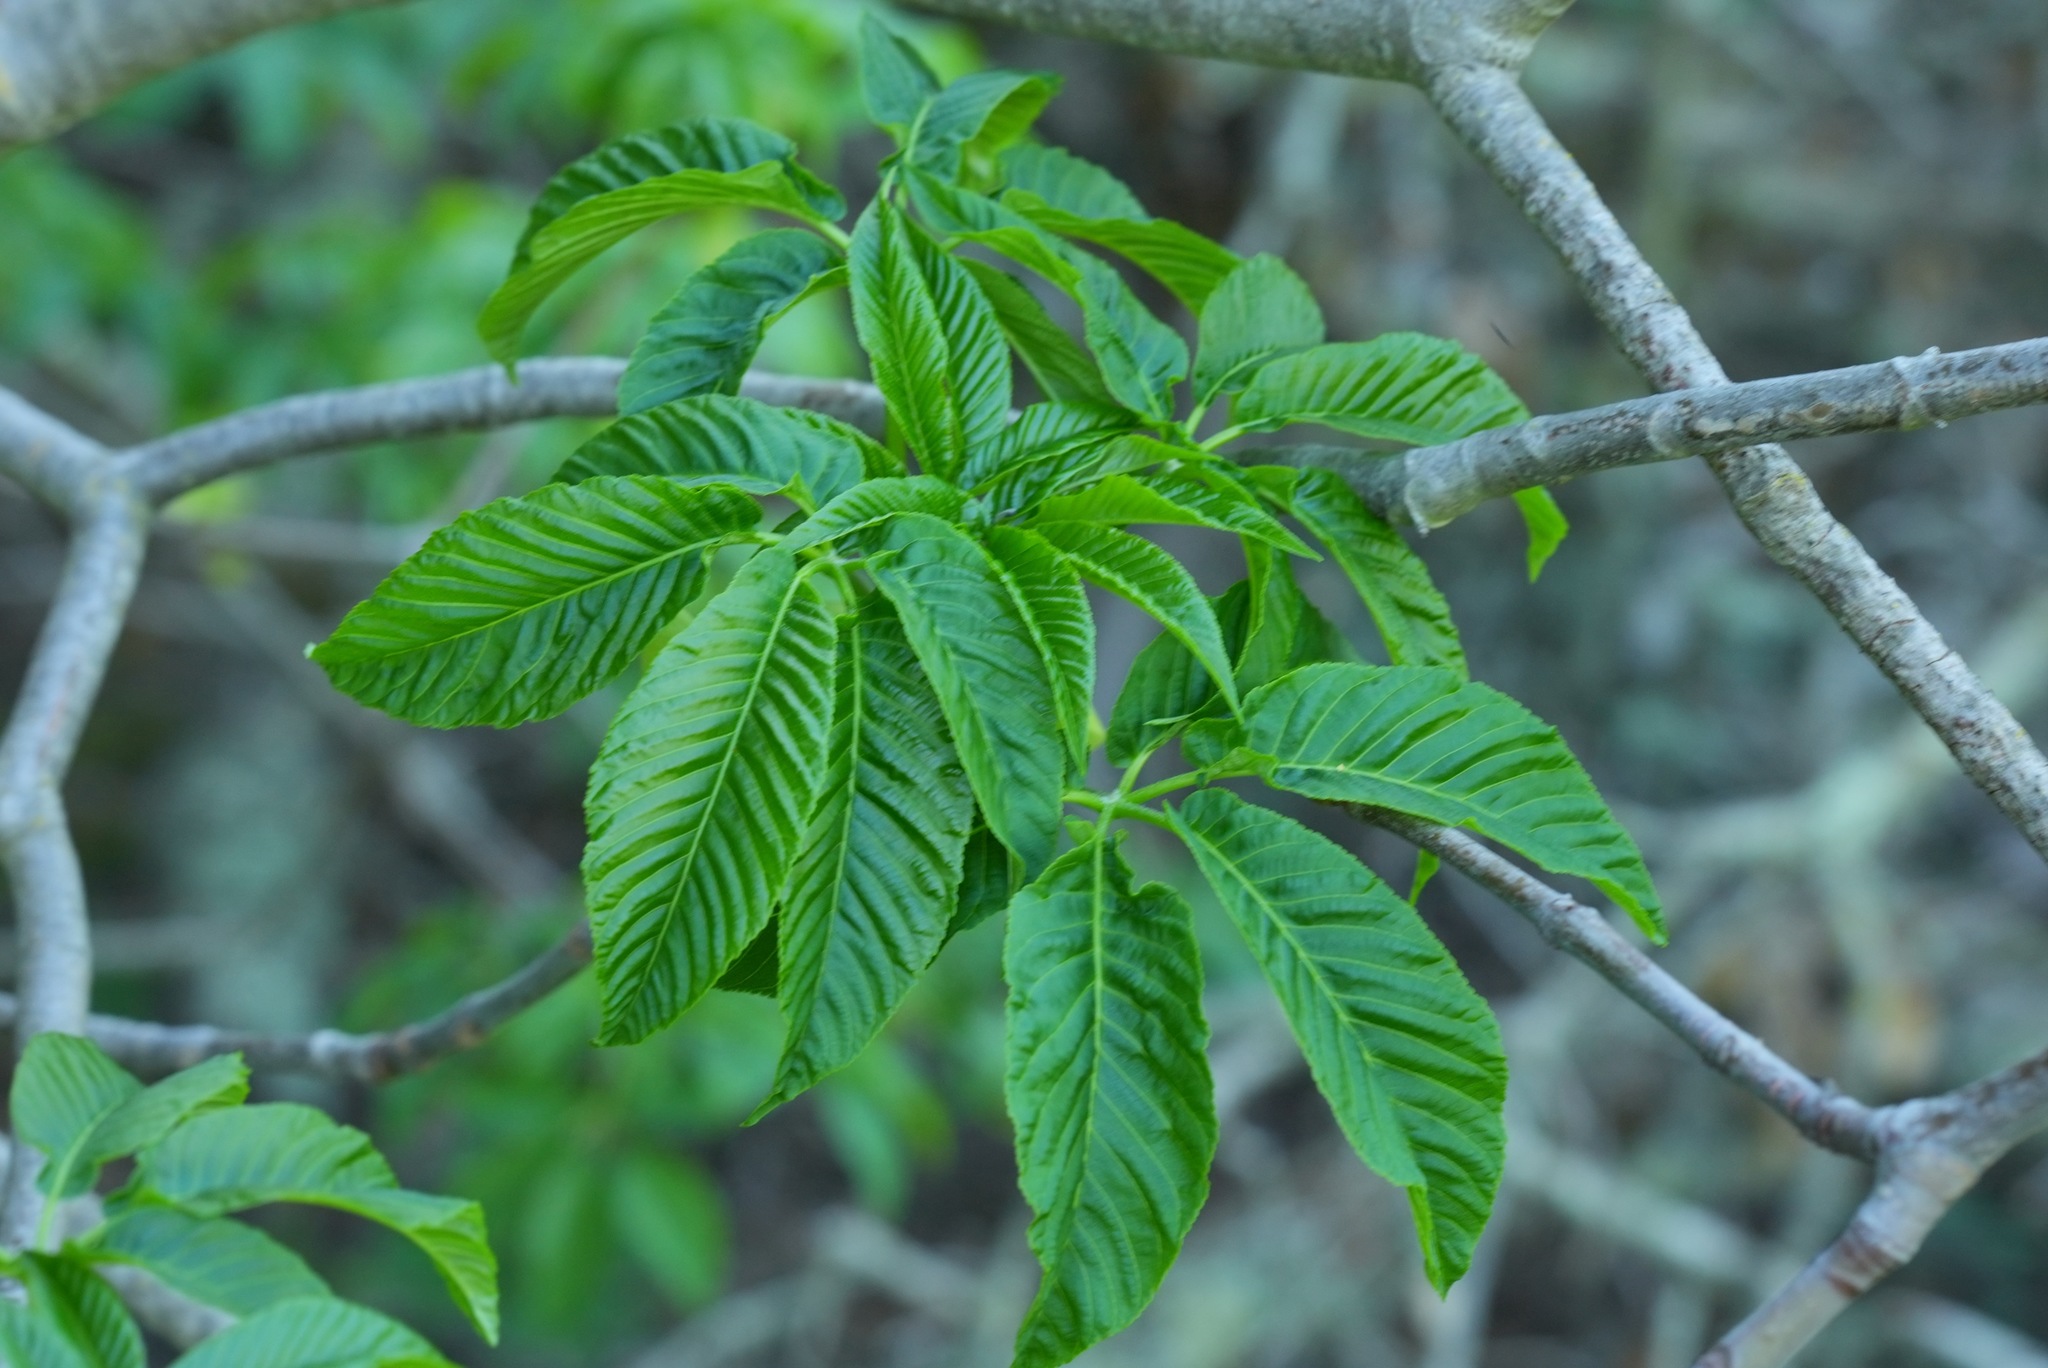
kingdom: Plantae
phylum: Tracheophyta
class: Magnoliopsida
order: Sapindales
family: Sapindaceae
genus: Aesculus
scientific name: Aesculus californica
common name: California buckeye
